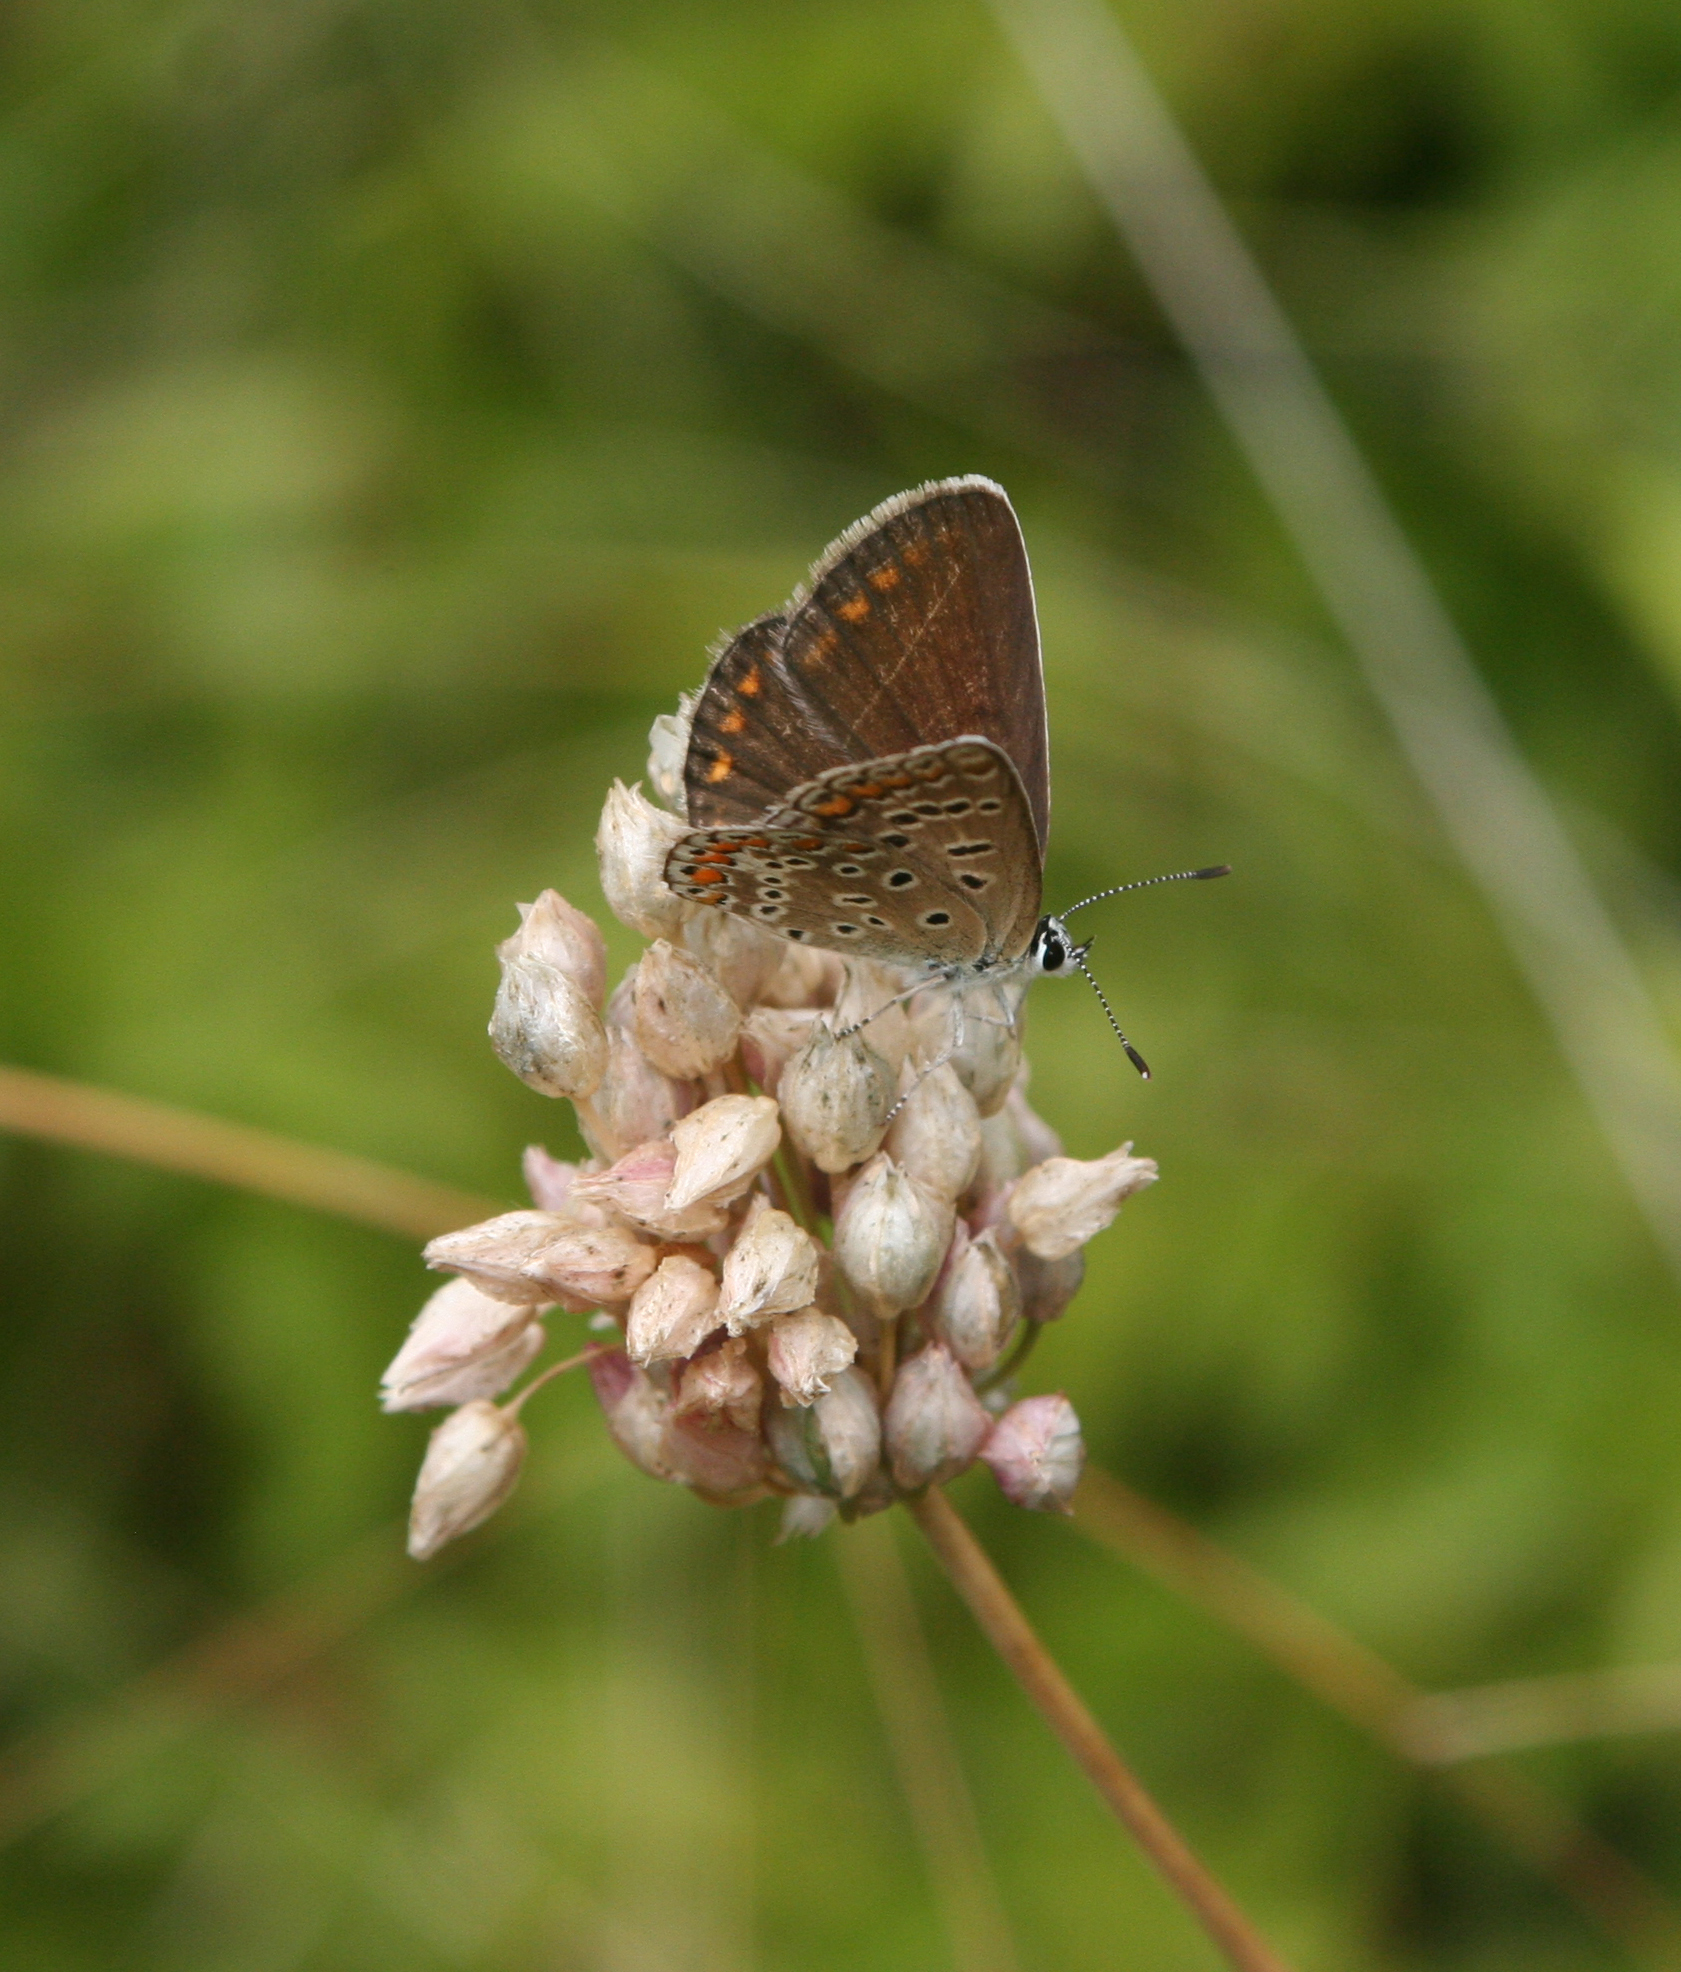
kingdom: Plantae
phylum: Tracheophyta
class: Liliopsida
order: Asparagales
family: Amaryllidaceae
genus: Allium
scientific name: Allium rotundum
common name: Sand leek
